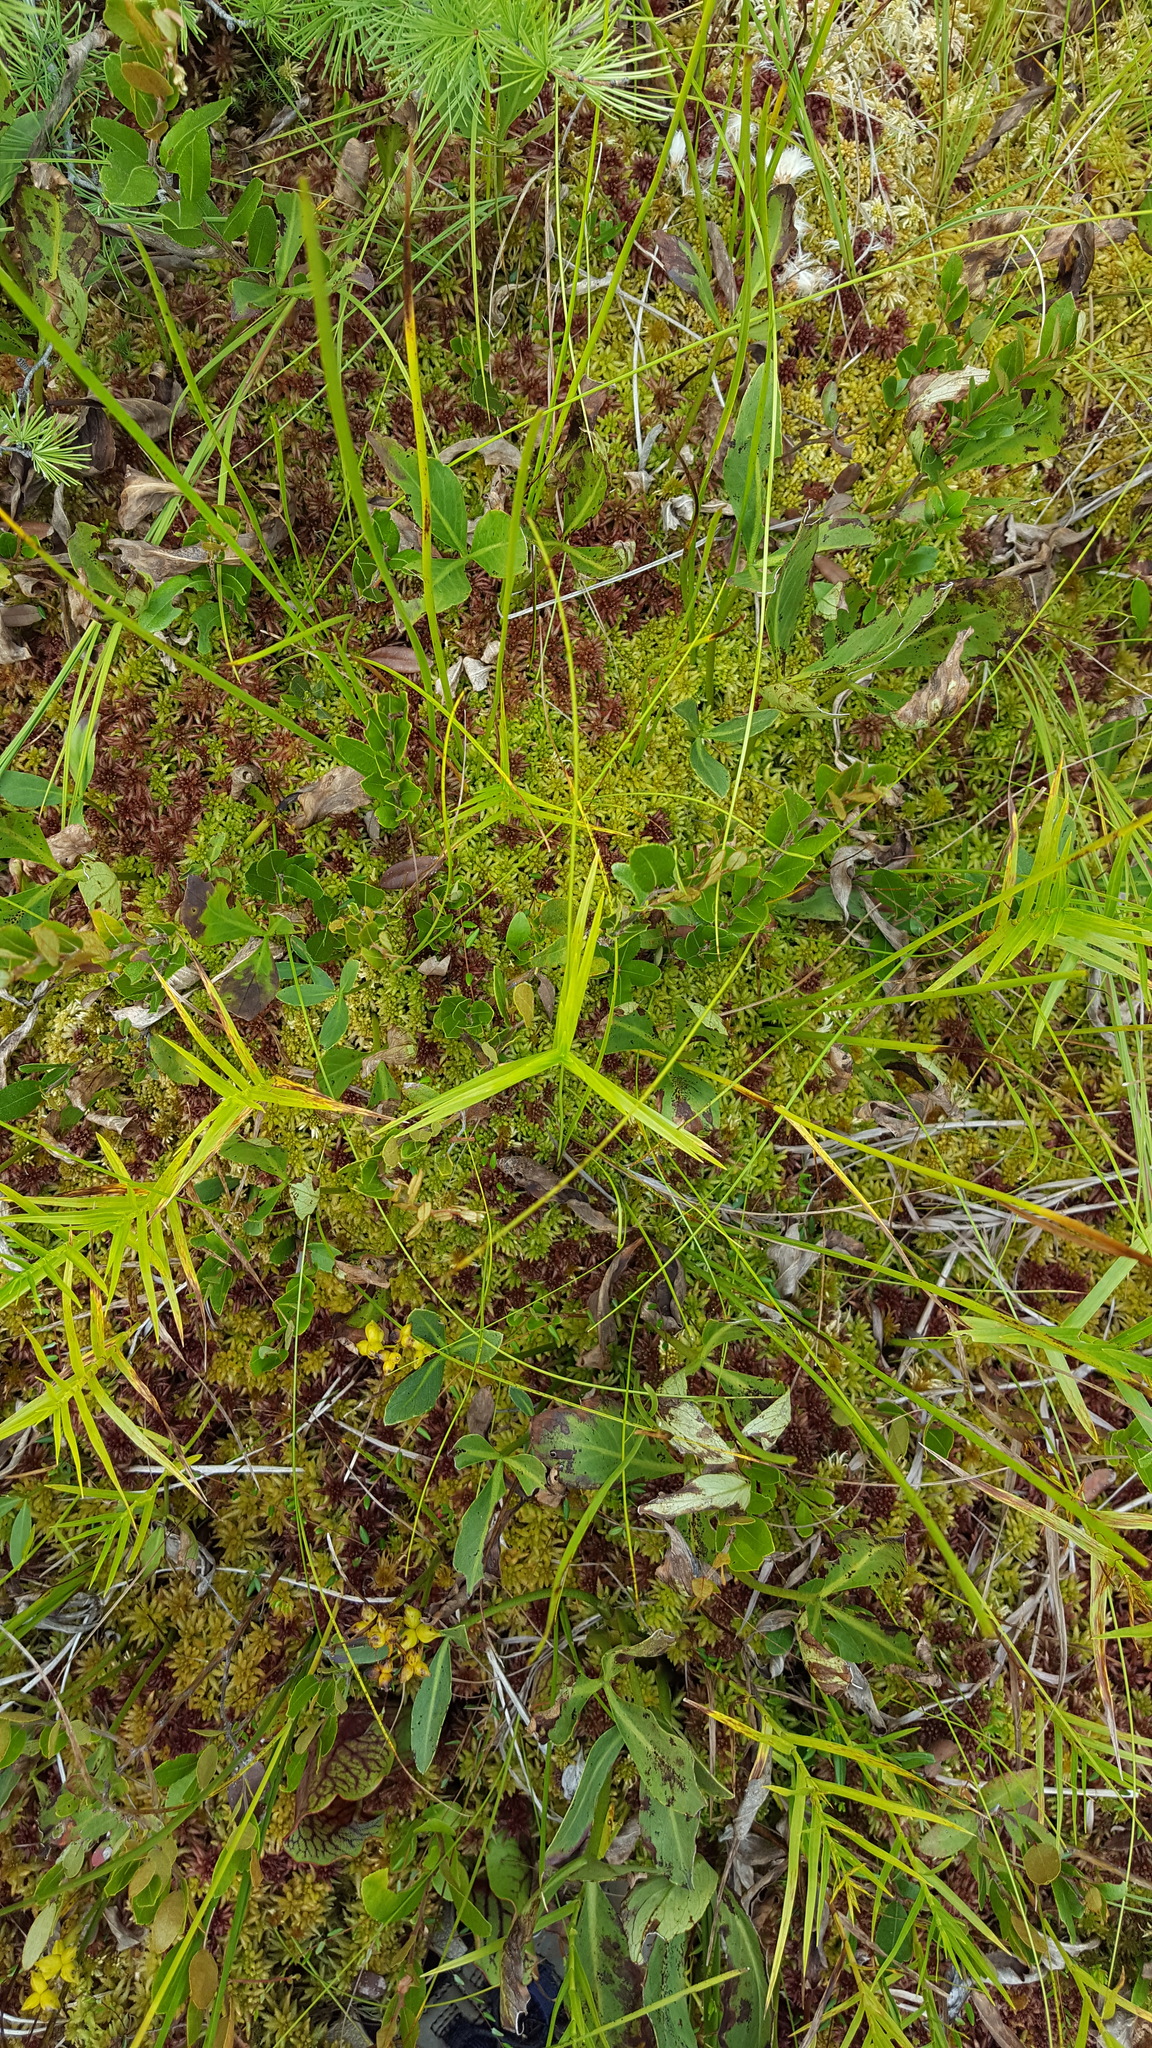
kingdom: Plantae
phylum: Tracheophyta
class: Liliopsida
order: Poales
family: Cyperaceae
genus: Dulichium
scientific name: Dulichium arundinaceum
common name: Three-way sedge
